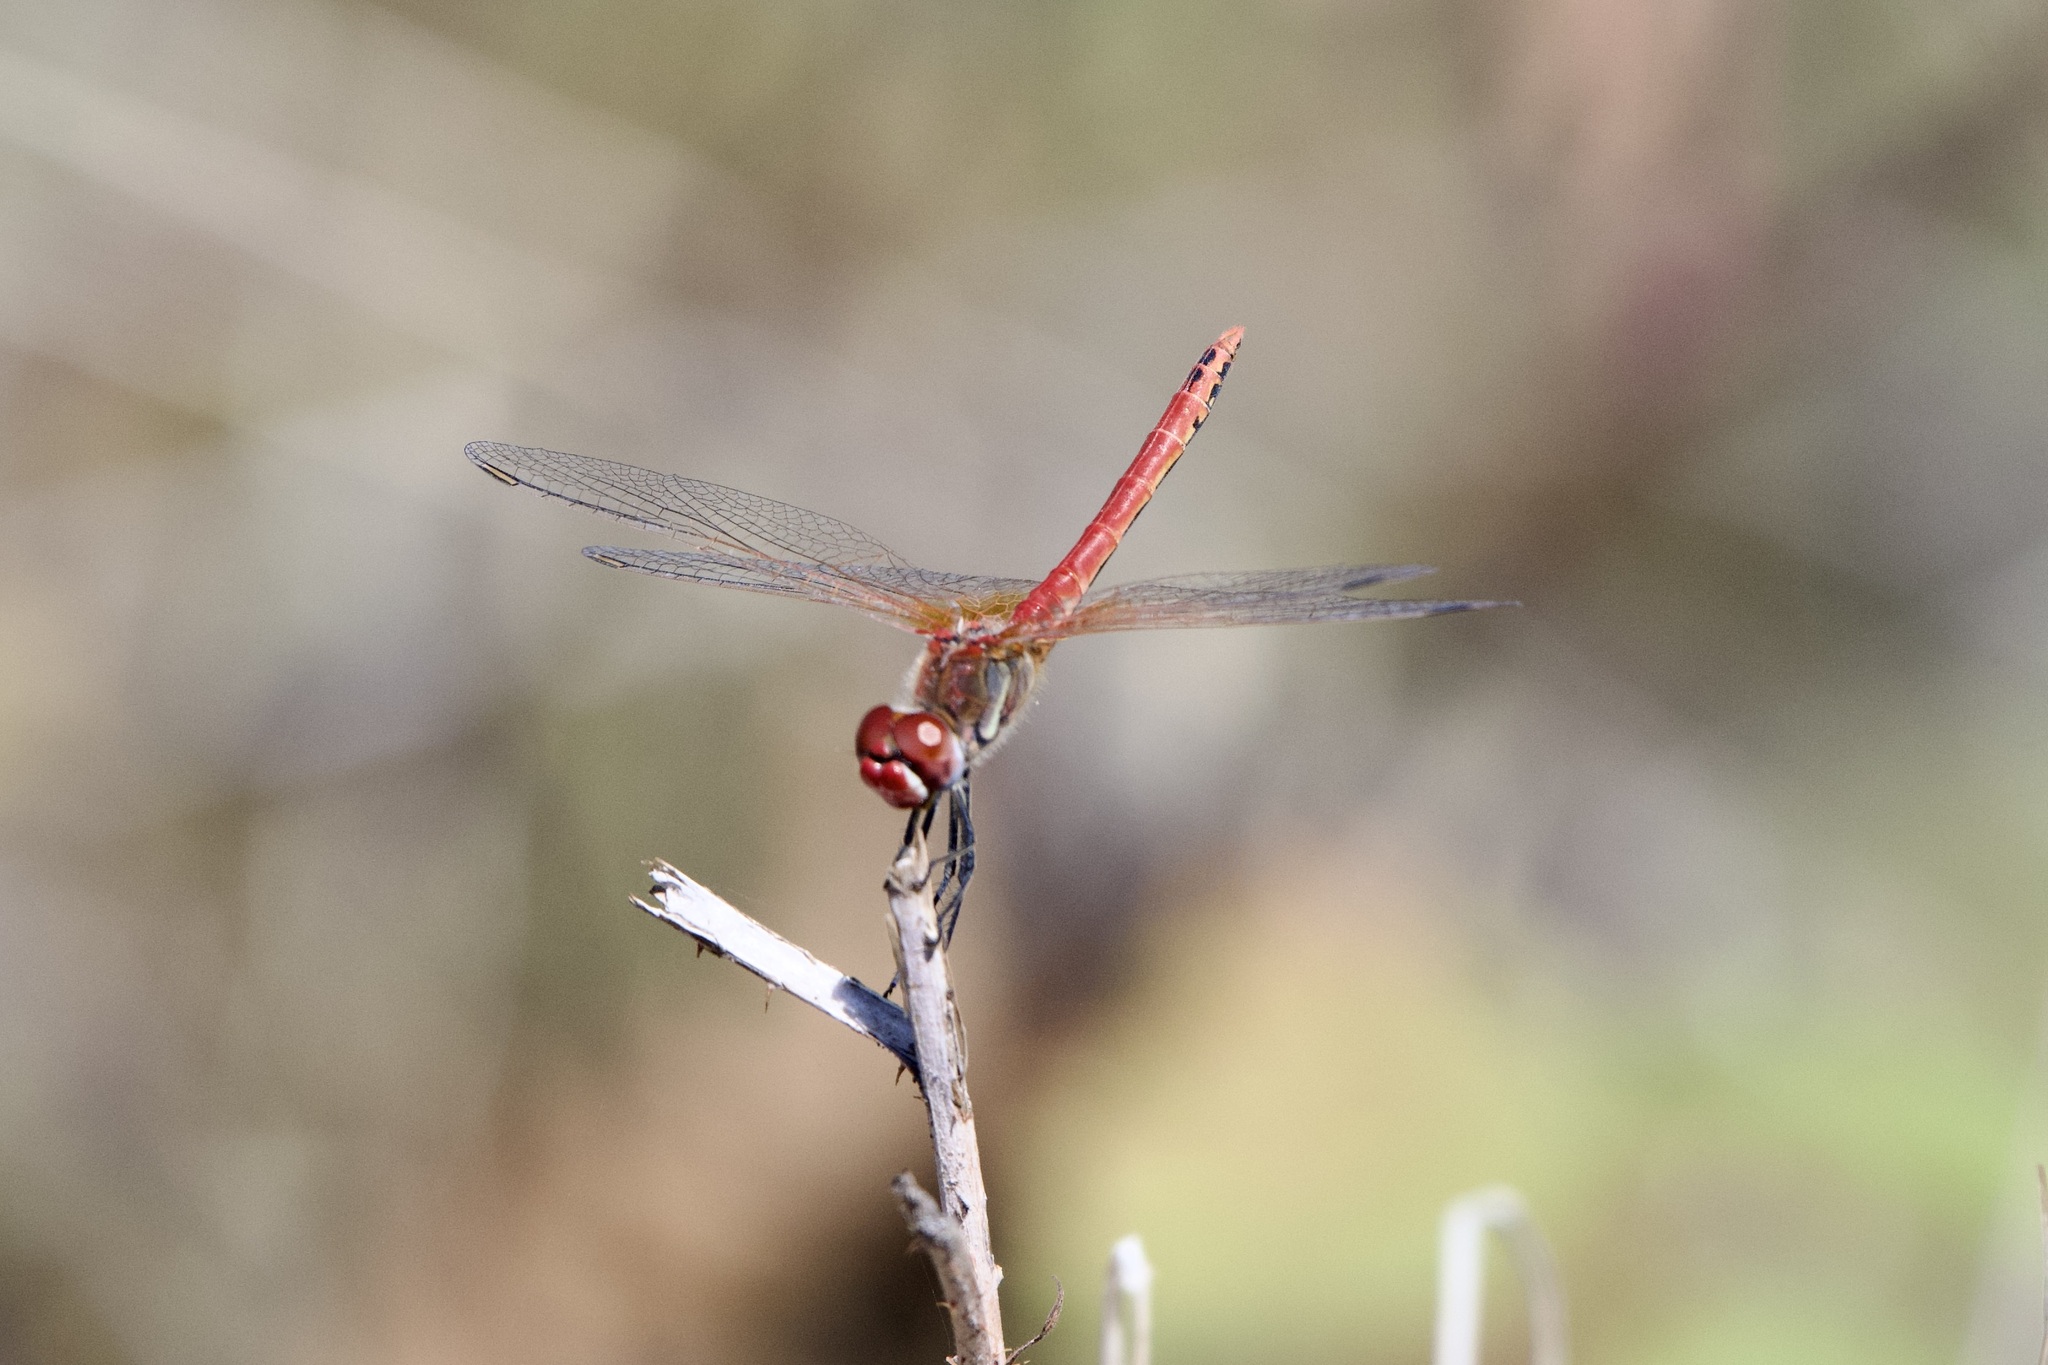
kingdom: Animalia
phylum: Arthropoda
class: Insecta
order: Odonata
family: Libellulidae
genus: Sympetrum
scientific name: Sympetrum fonscolombii
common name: Red-veined darter
